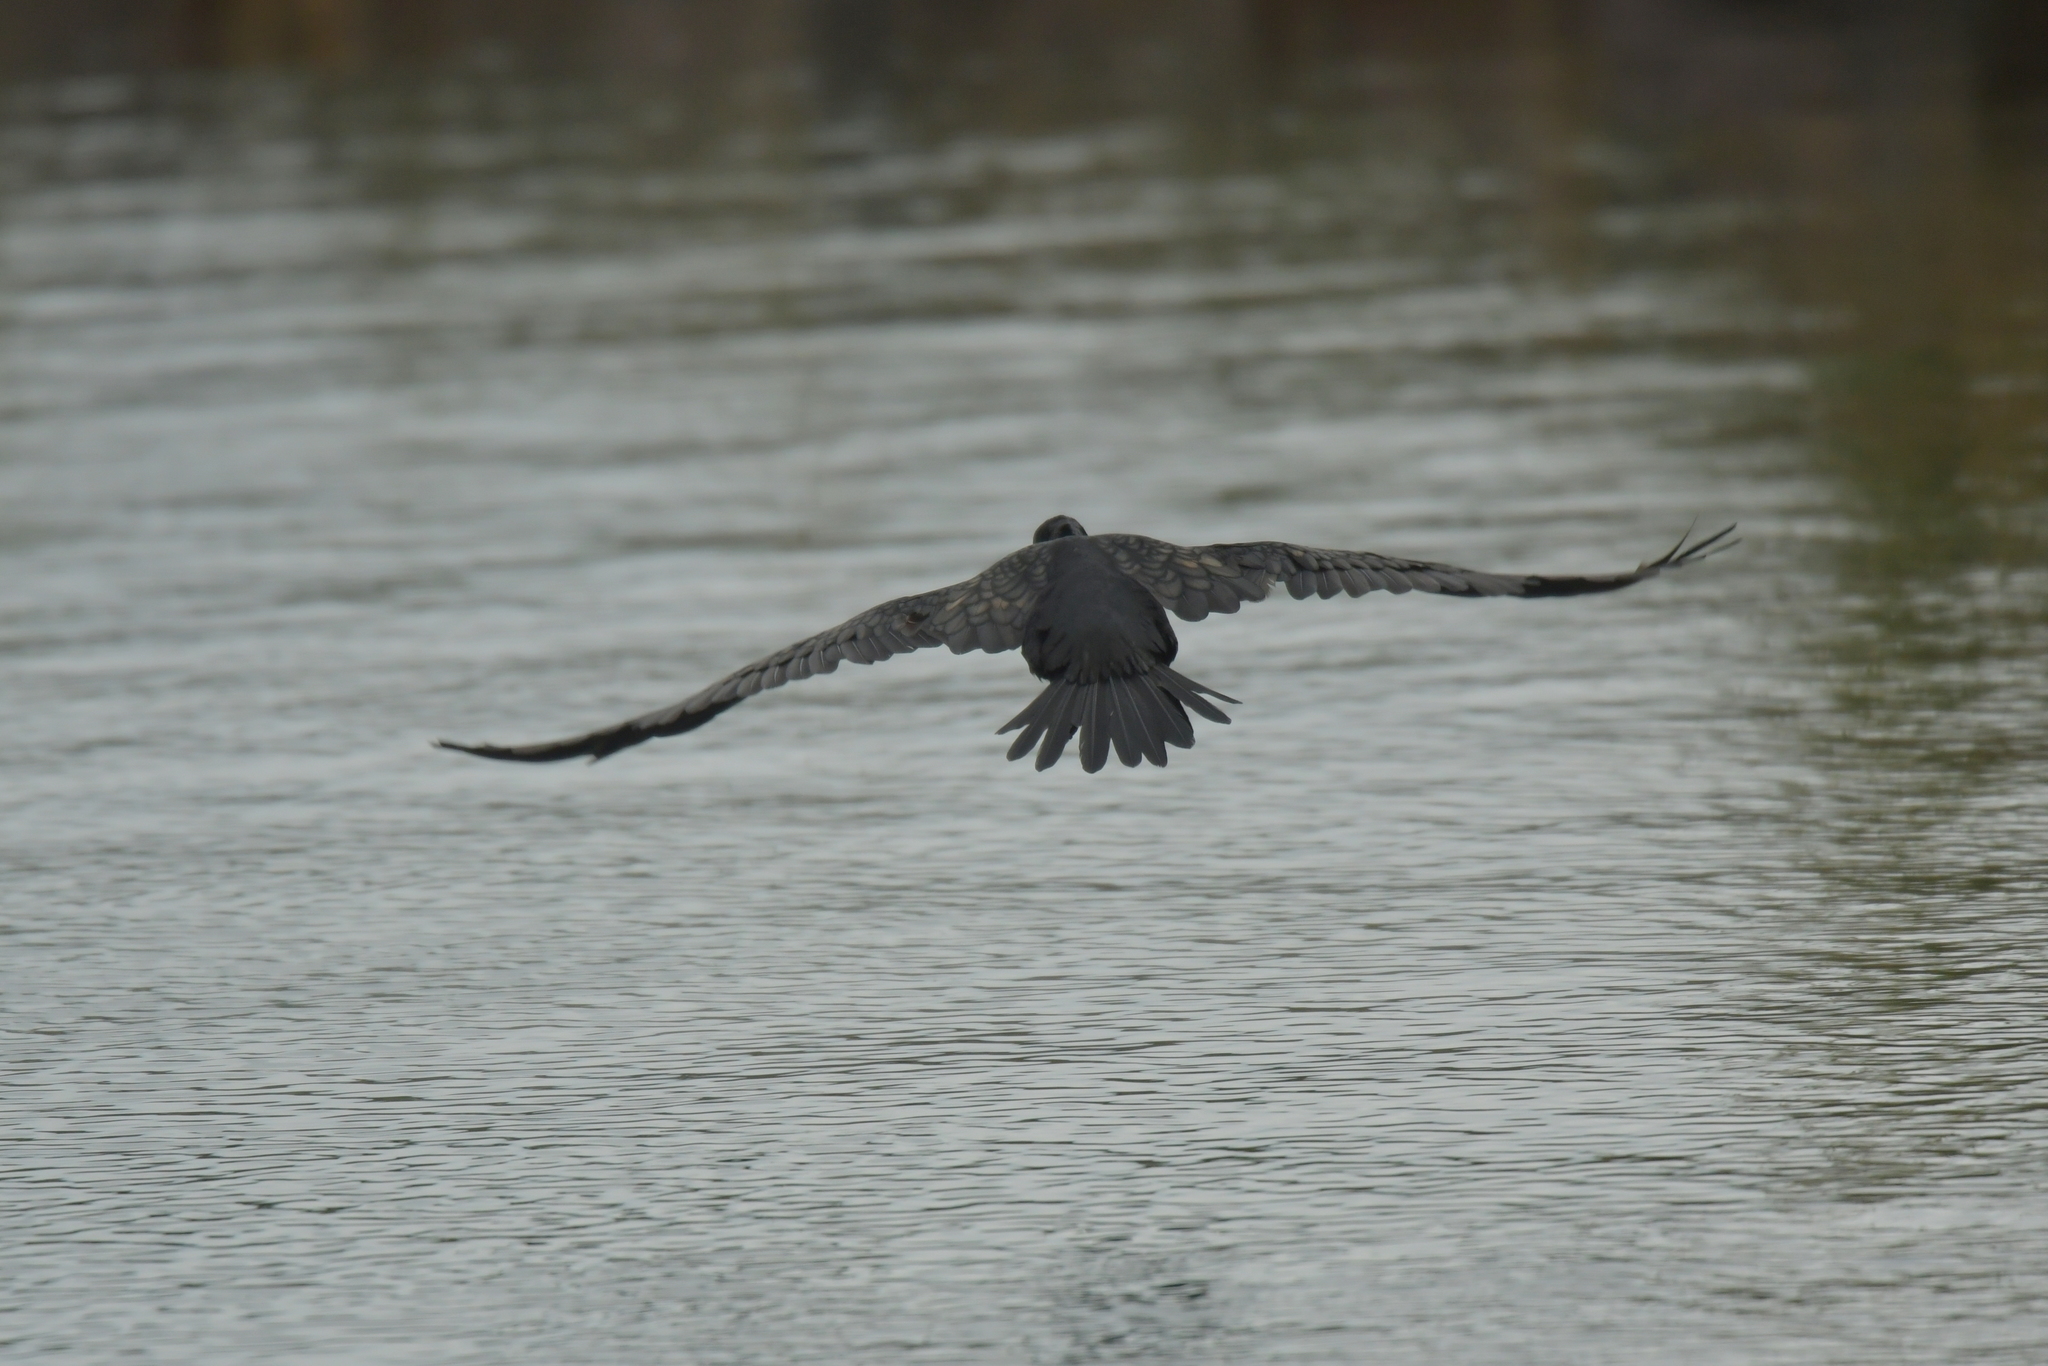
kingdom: Animalia
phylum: Chordata
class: Aves
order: Suliformes
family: Phalacrocoracidae
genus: Phalacrocorax
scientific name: Phalacrocorax sulcirostris
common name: Little black cormorant
